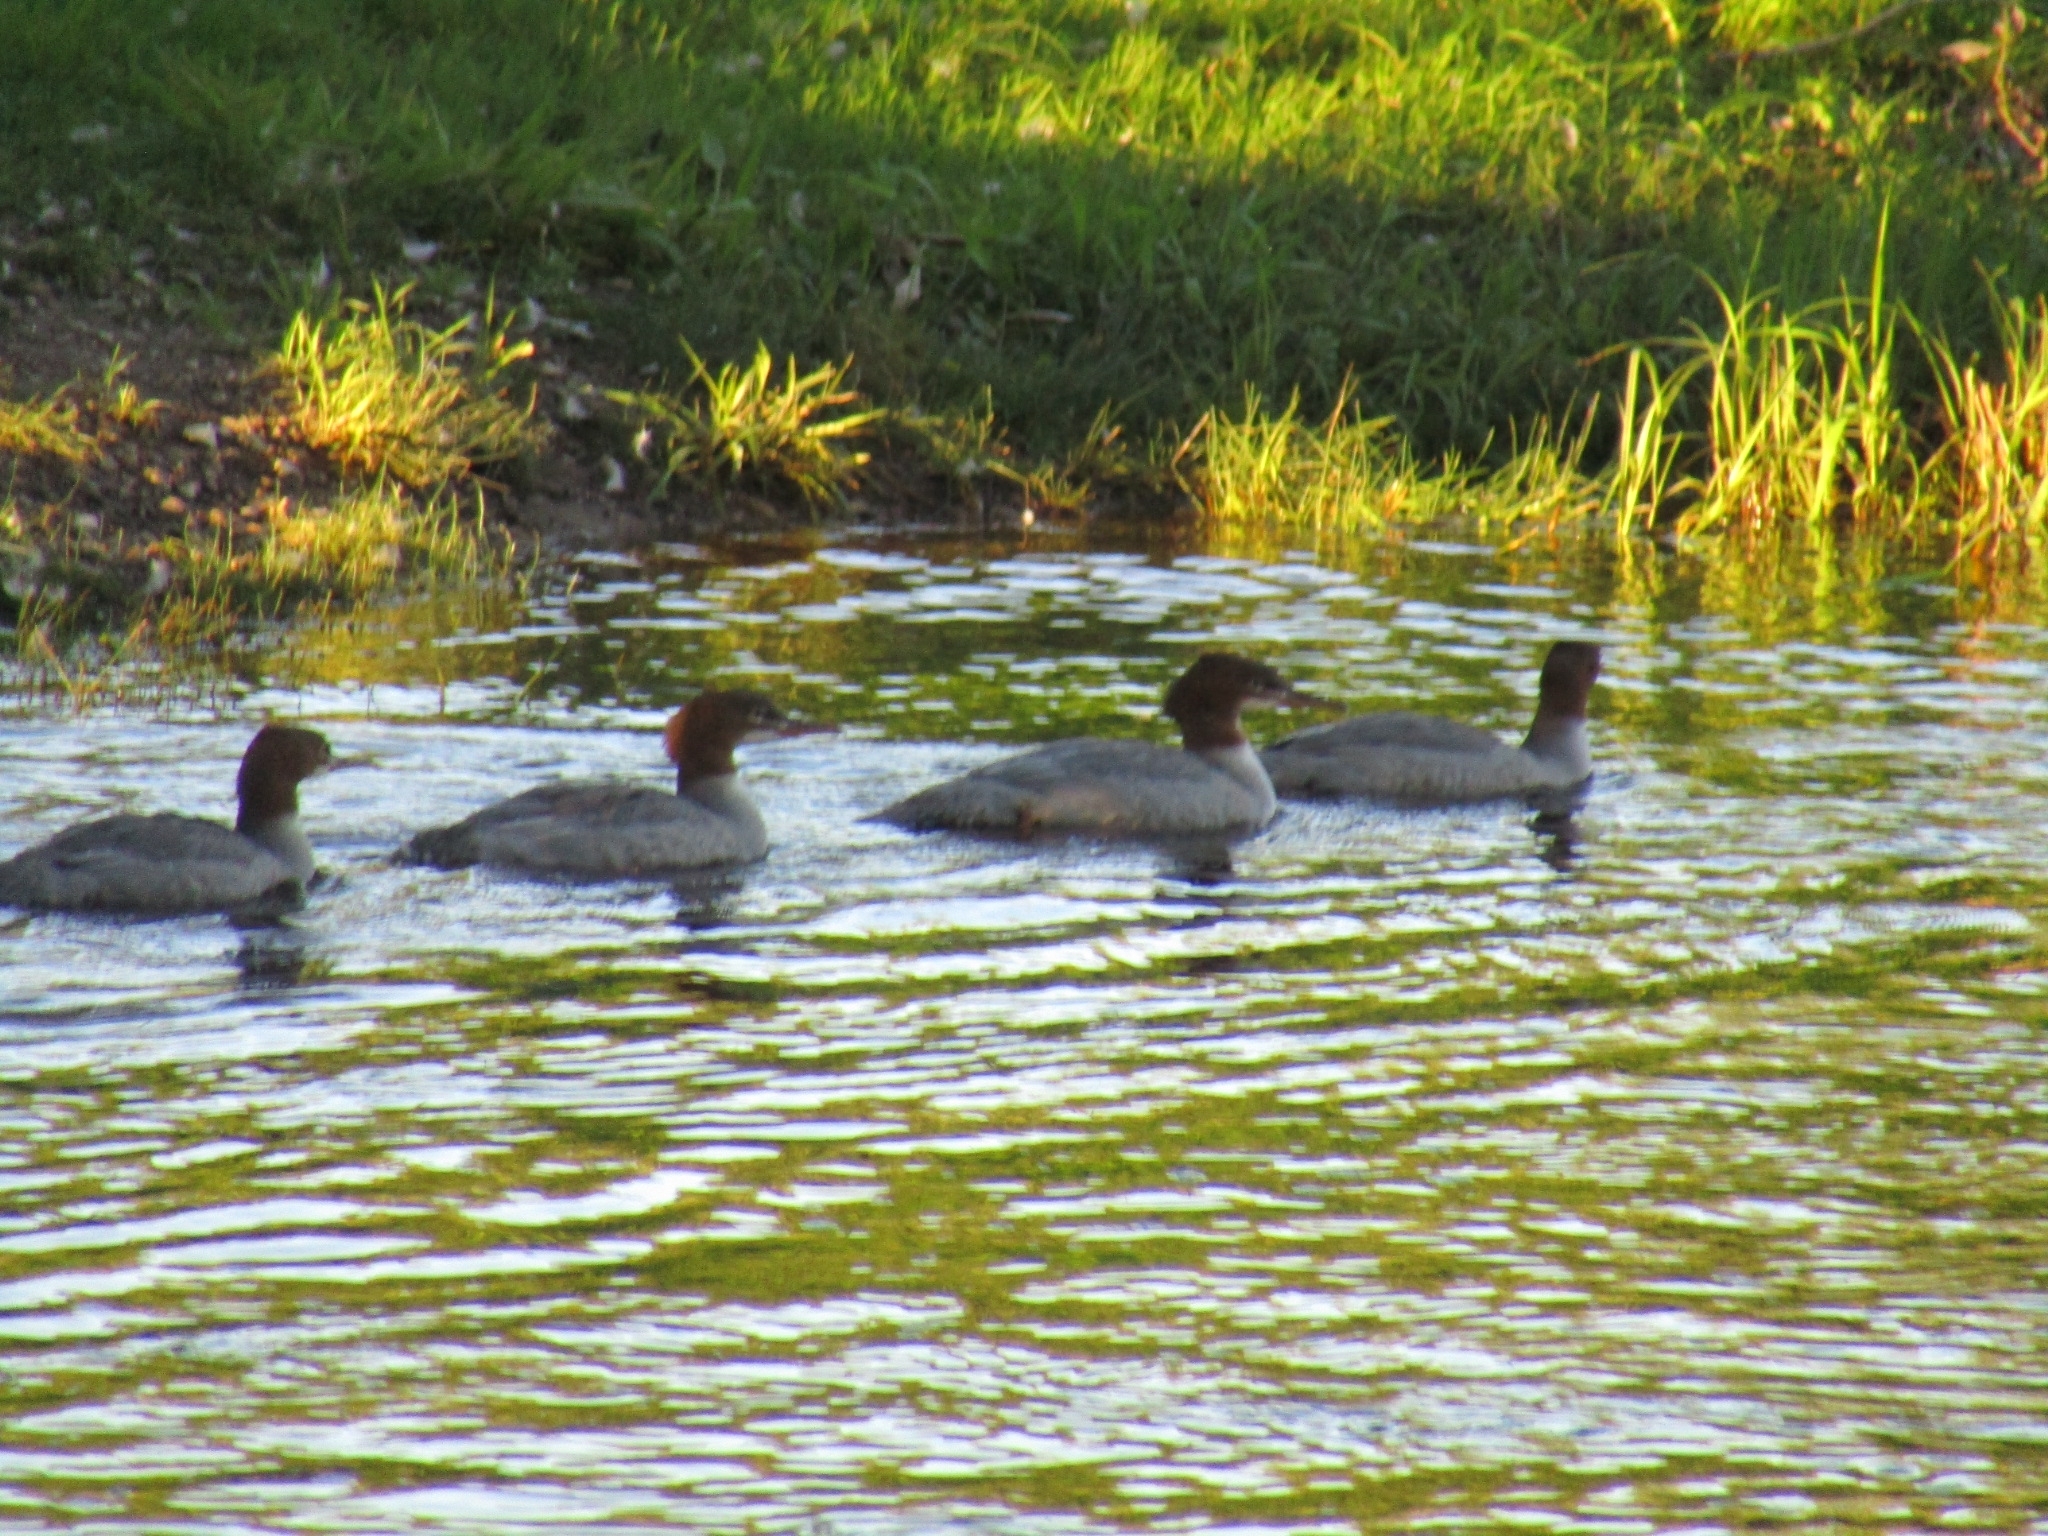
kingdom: Animalia
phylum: Chordata
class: Aves
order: Anseriformes
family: Anatidae
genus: Mergus
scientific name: Mergus merganser
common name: Common merganser
